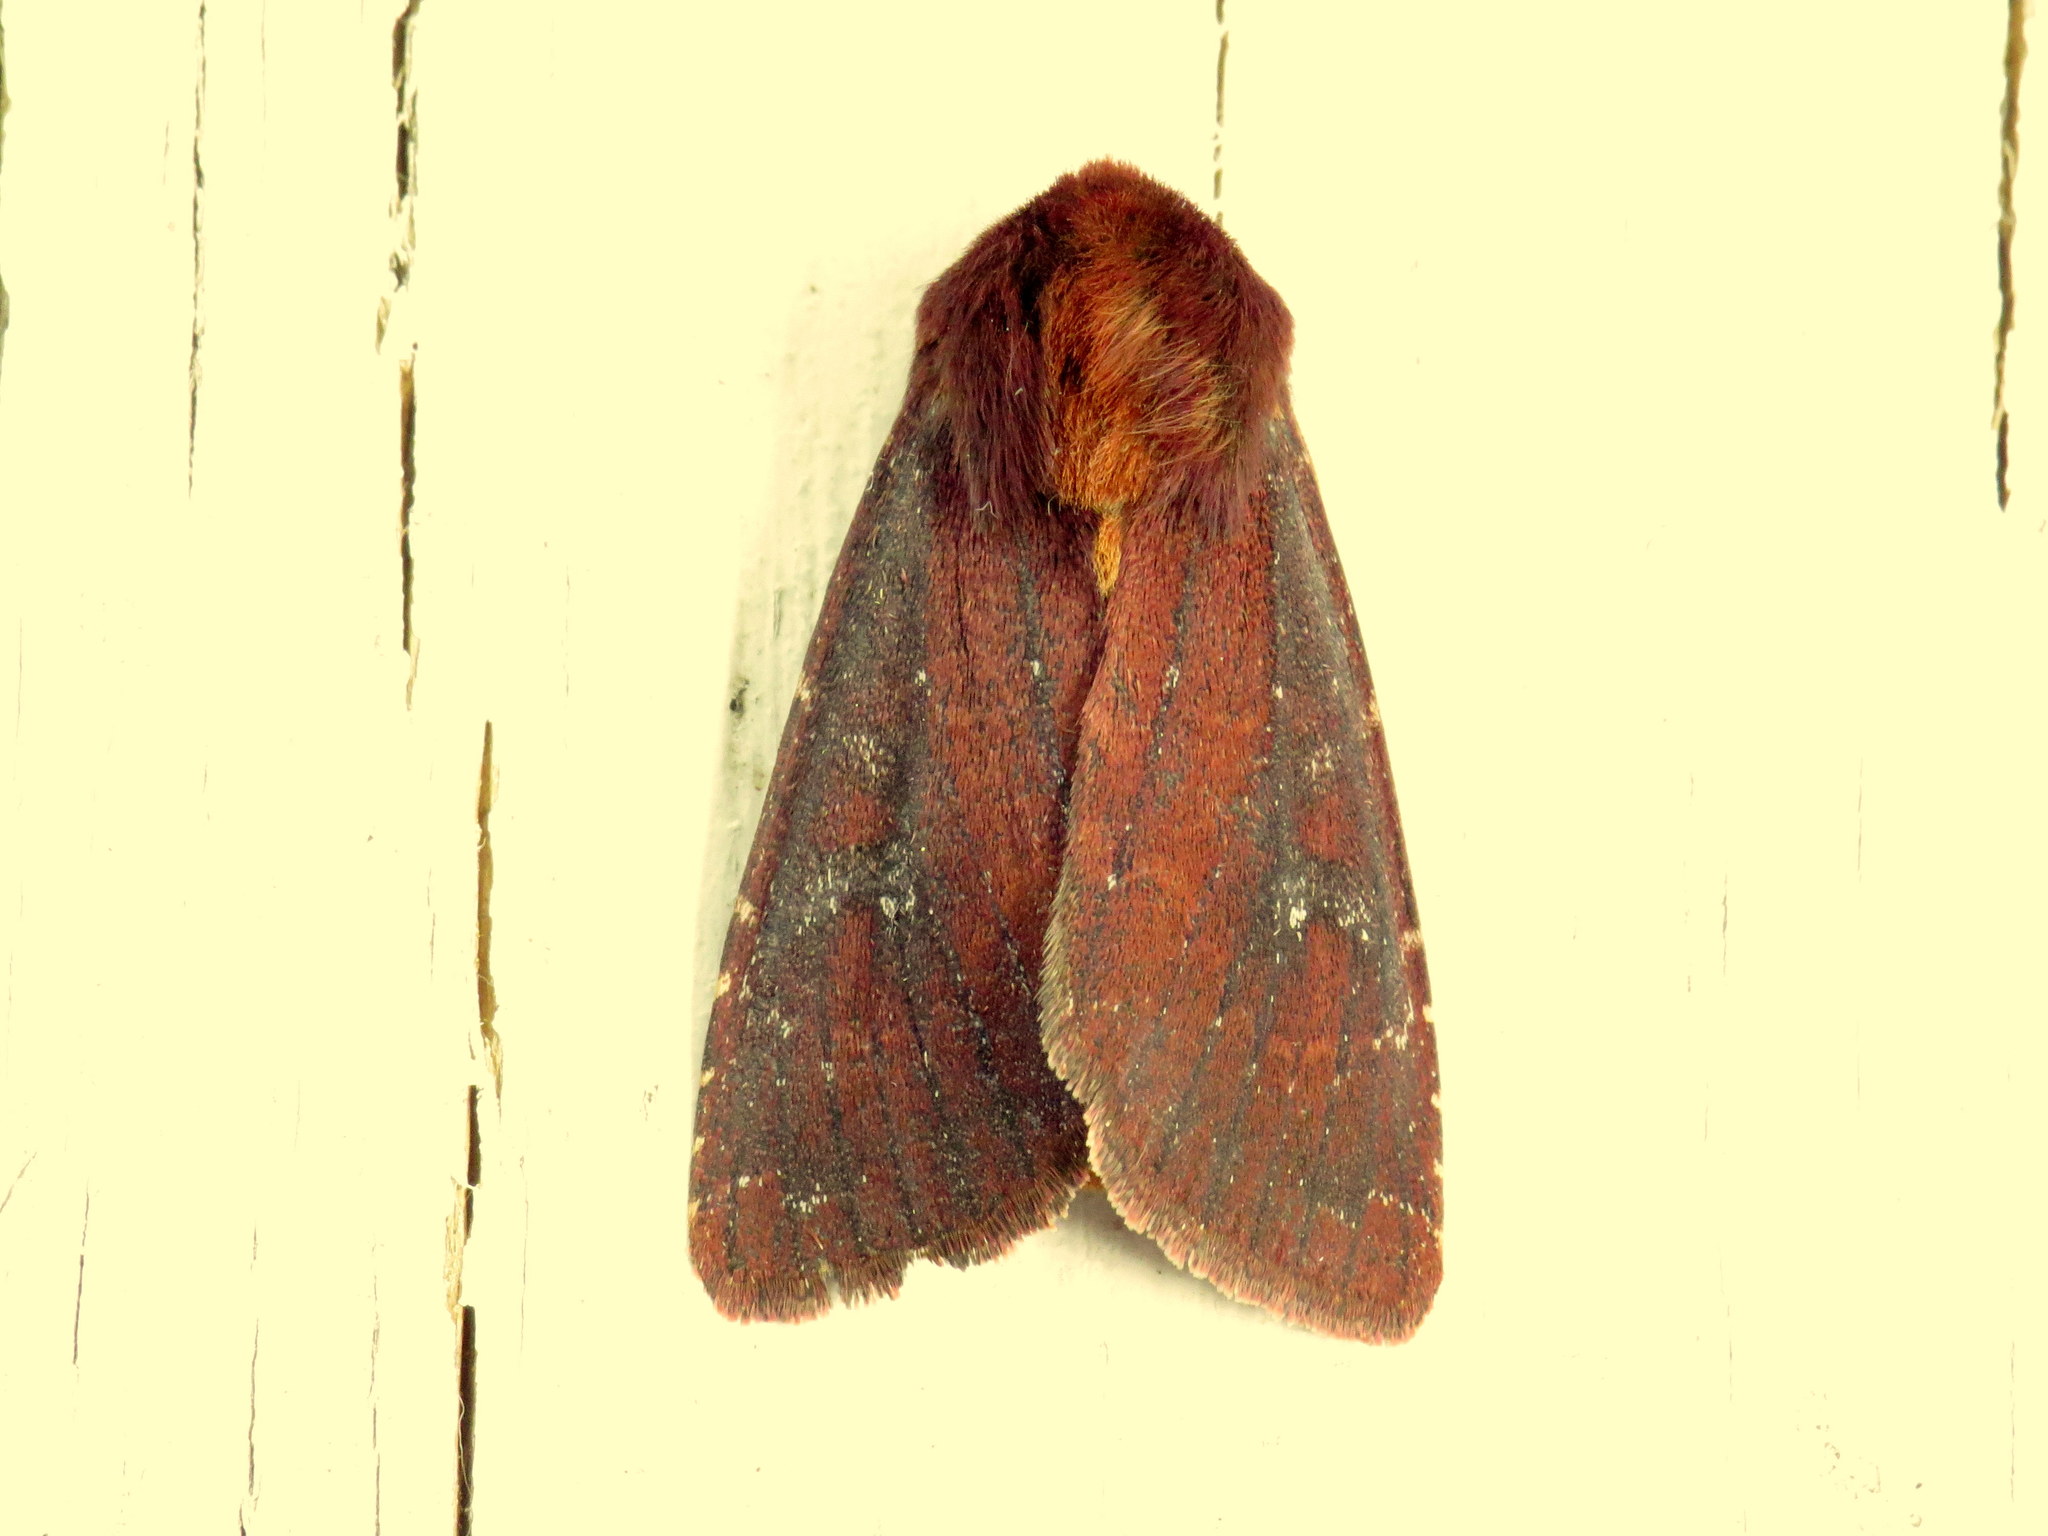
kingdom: Animalia
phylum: Arthropoda
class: Insecta
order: Lepidoptera
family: Noctuidae
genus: Sideridis
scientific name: Sideridis maryx
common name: Maroonwing moth
